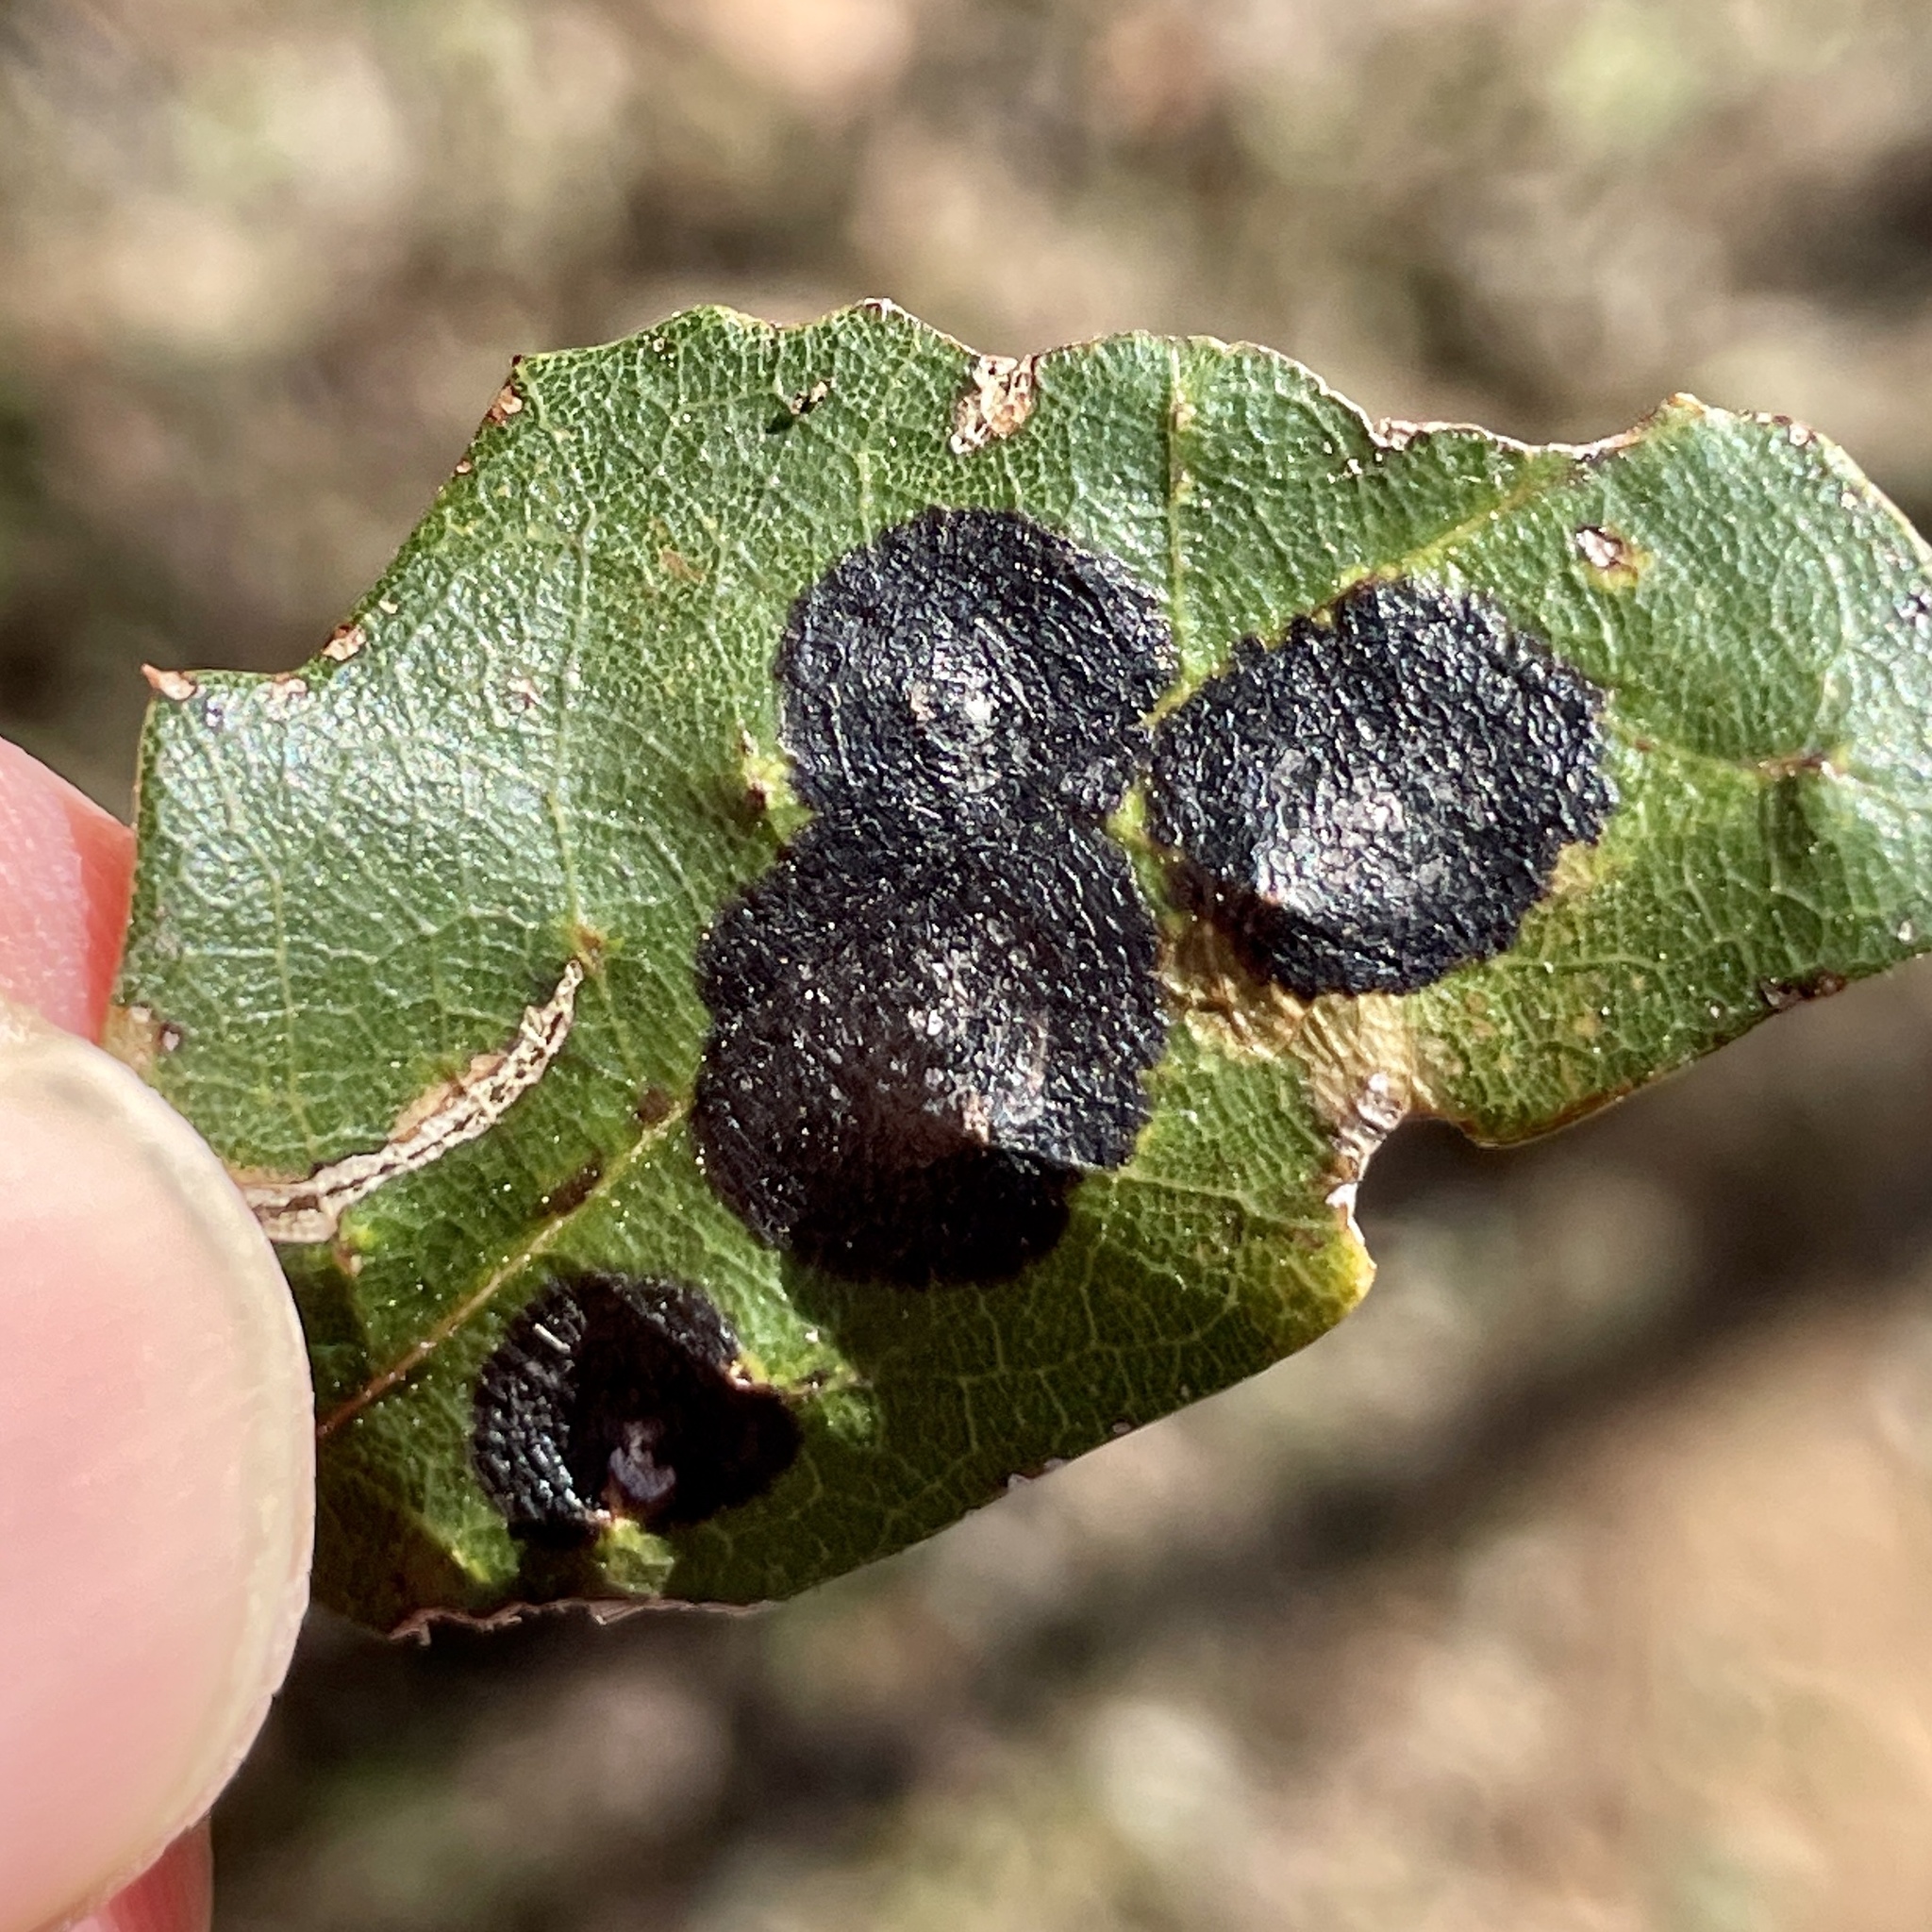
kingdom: Fungi
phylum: Ascomycota
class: Sordariomycetes
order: Phyllachorales
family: Phyllachoraceae
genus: Trabutia
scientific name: Trabutia quercina
